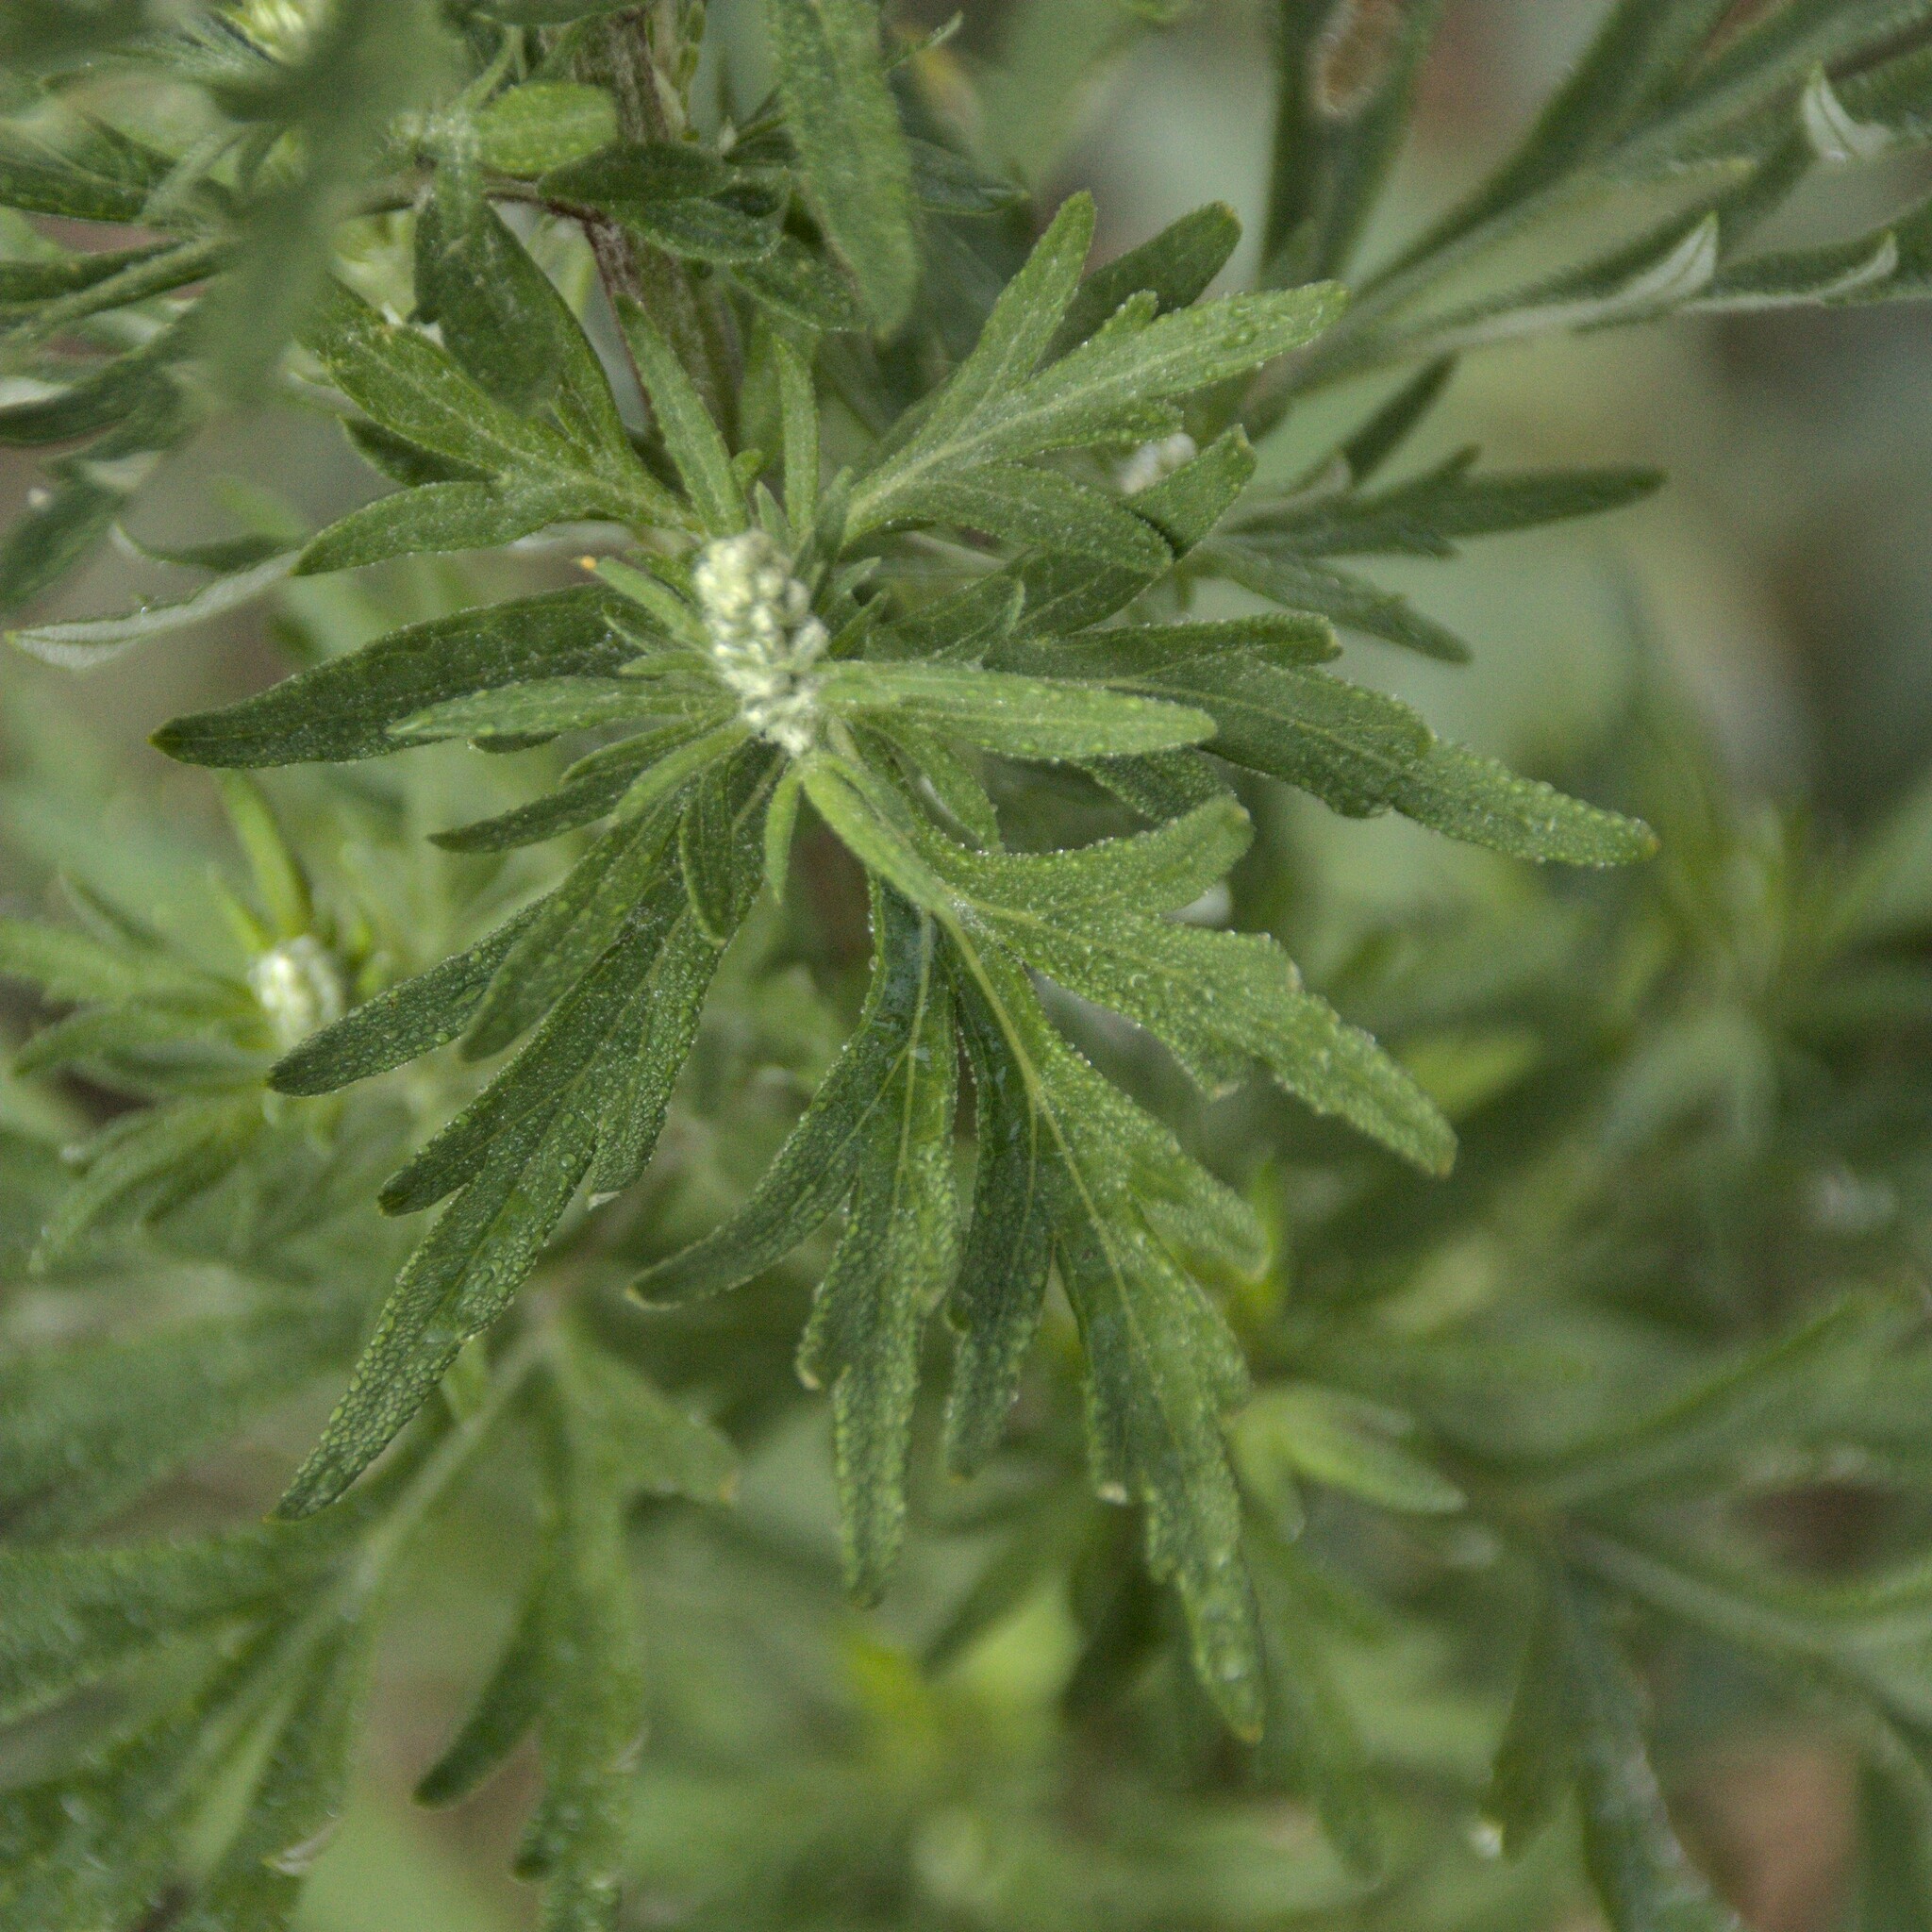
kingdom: Plantae
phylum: Tracheophyta
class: Magnoliopsida
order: Asterales
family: Asteraceae
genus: Artemisia
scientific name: Artemisia vulgaris
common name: Mugwort
